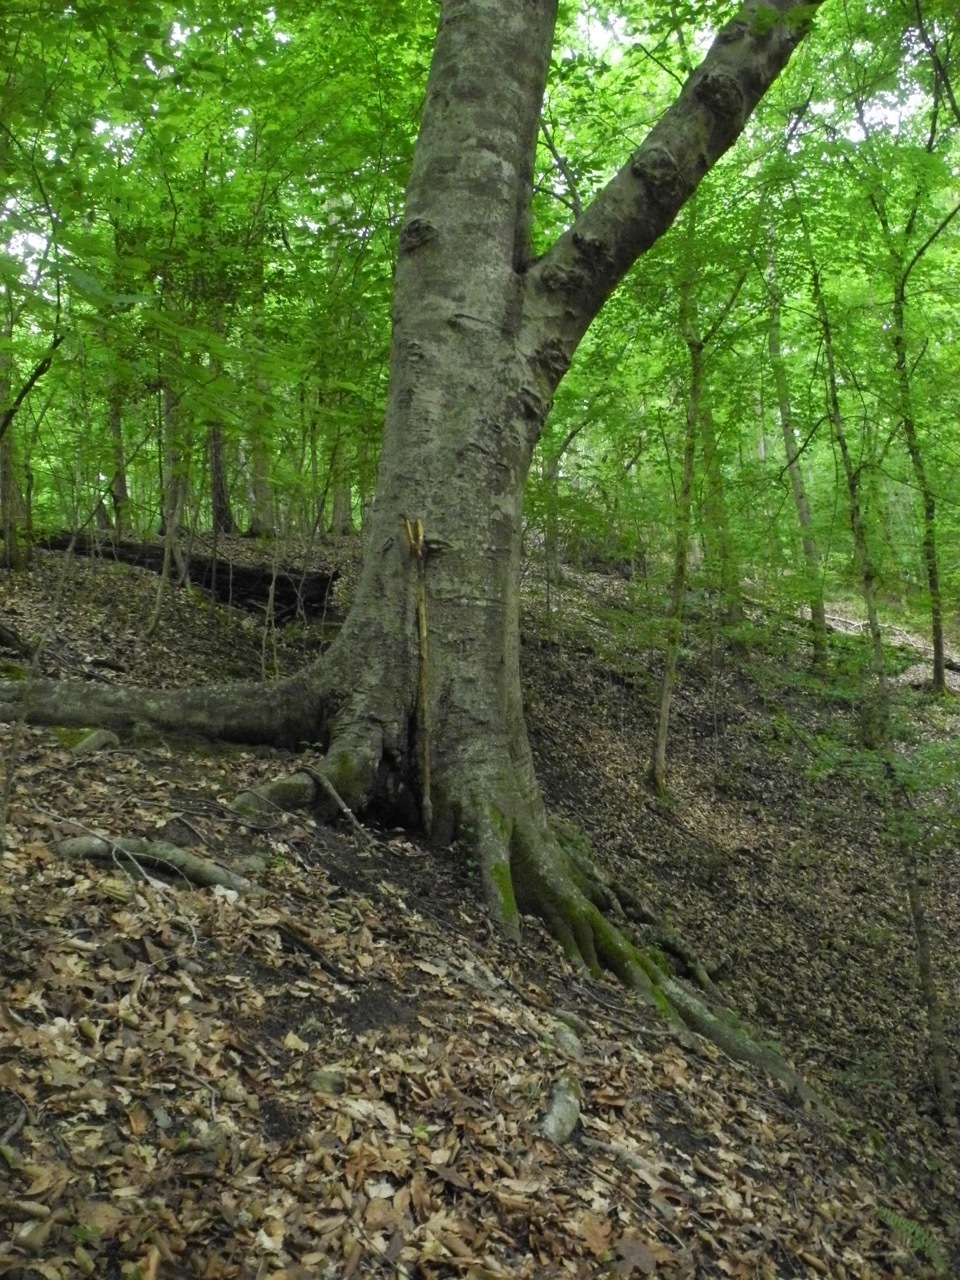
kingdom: Plantae
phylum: Tracheophyta
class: Magnoliopsida
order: Fagales
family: Fagaceae
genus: Fagus
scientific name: Fagus grandifolia
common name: American beech
